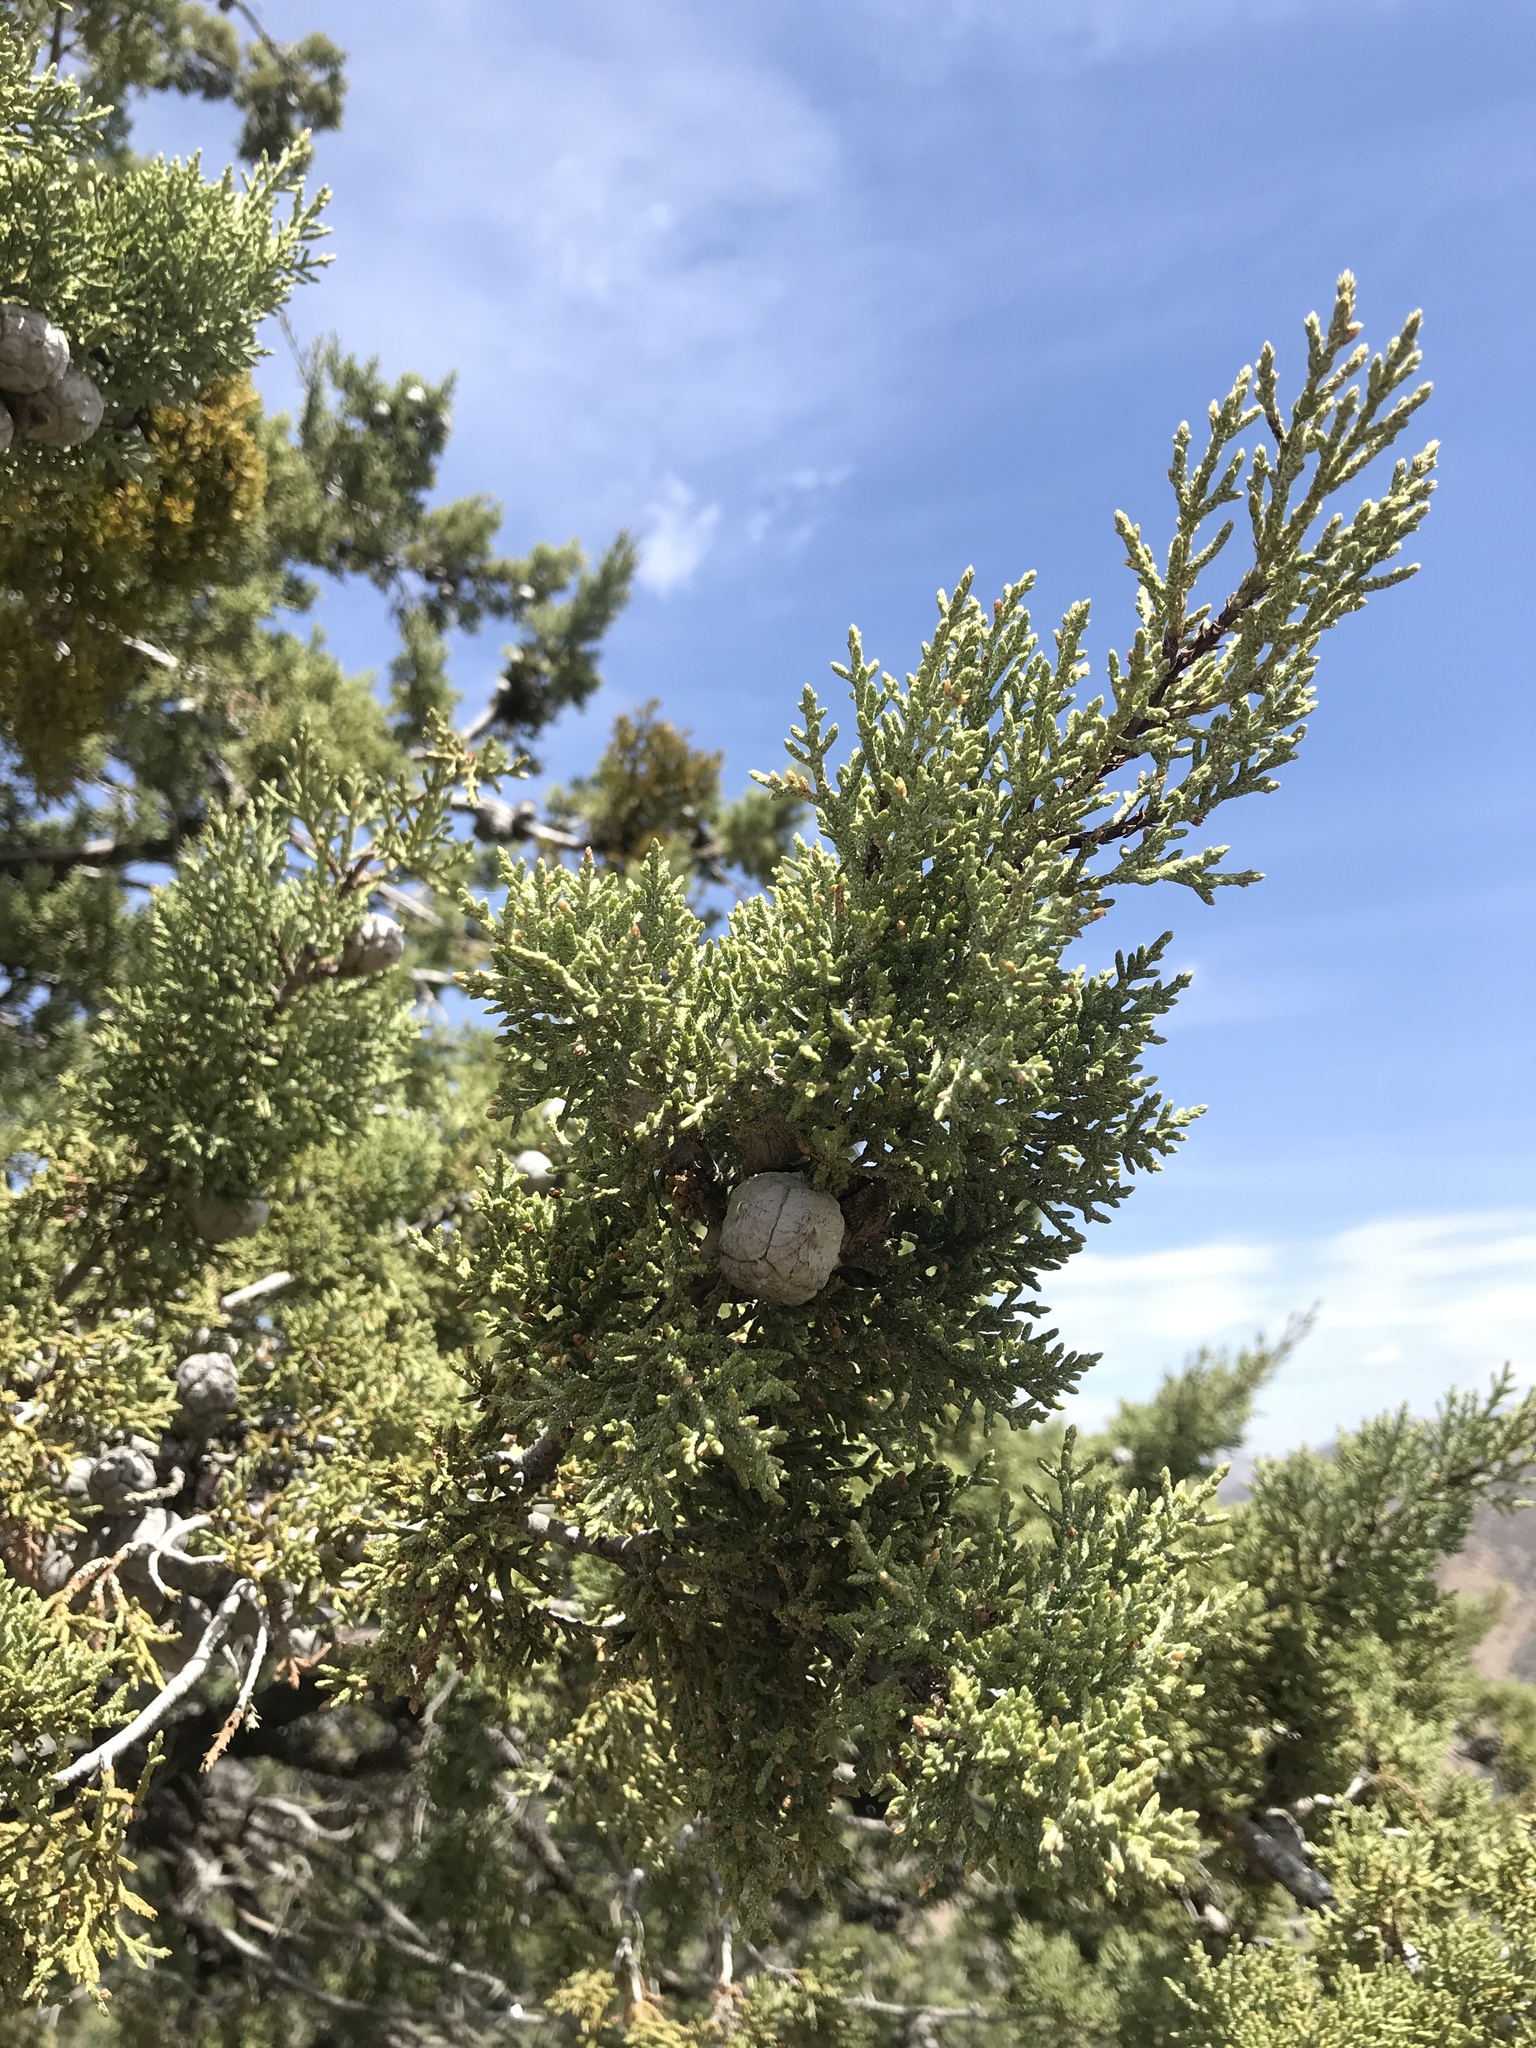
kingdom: Plantae
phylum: Tracheophyta
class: Pinopsida
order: Pinales
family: Cupressaceae
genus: Cupressus
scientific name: Cupressus arizonica
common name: Arizona cypress
